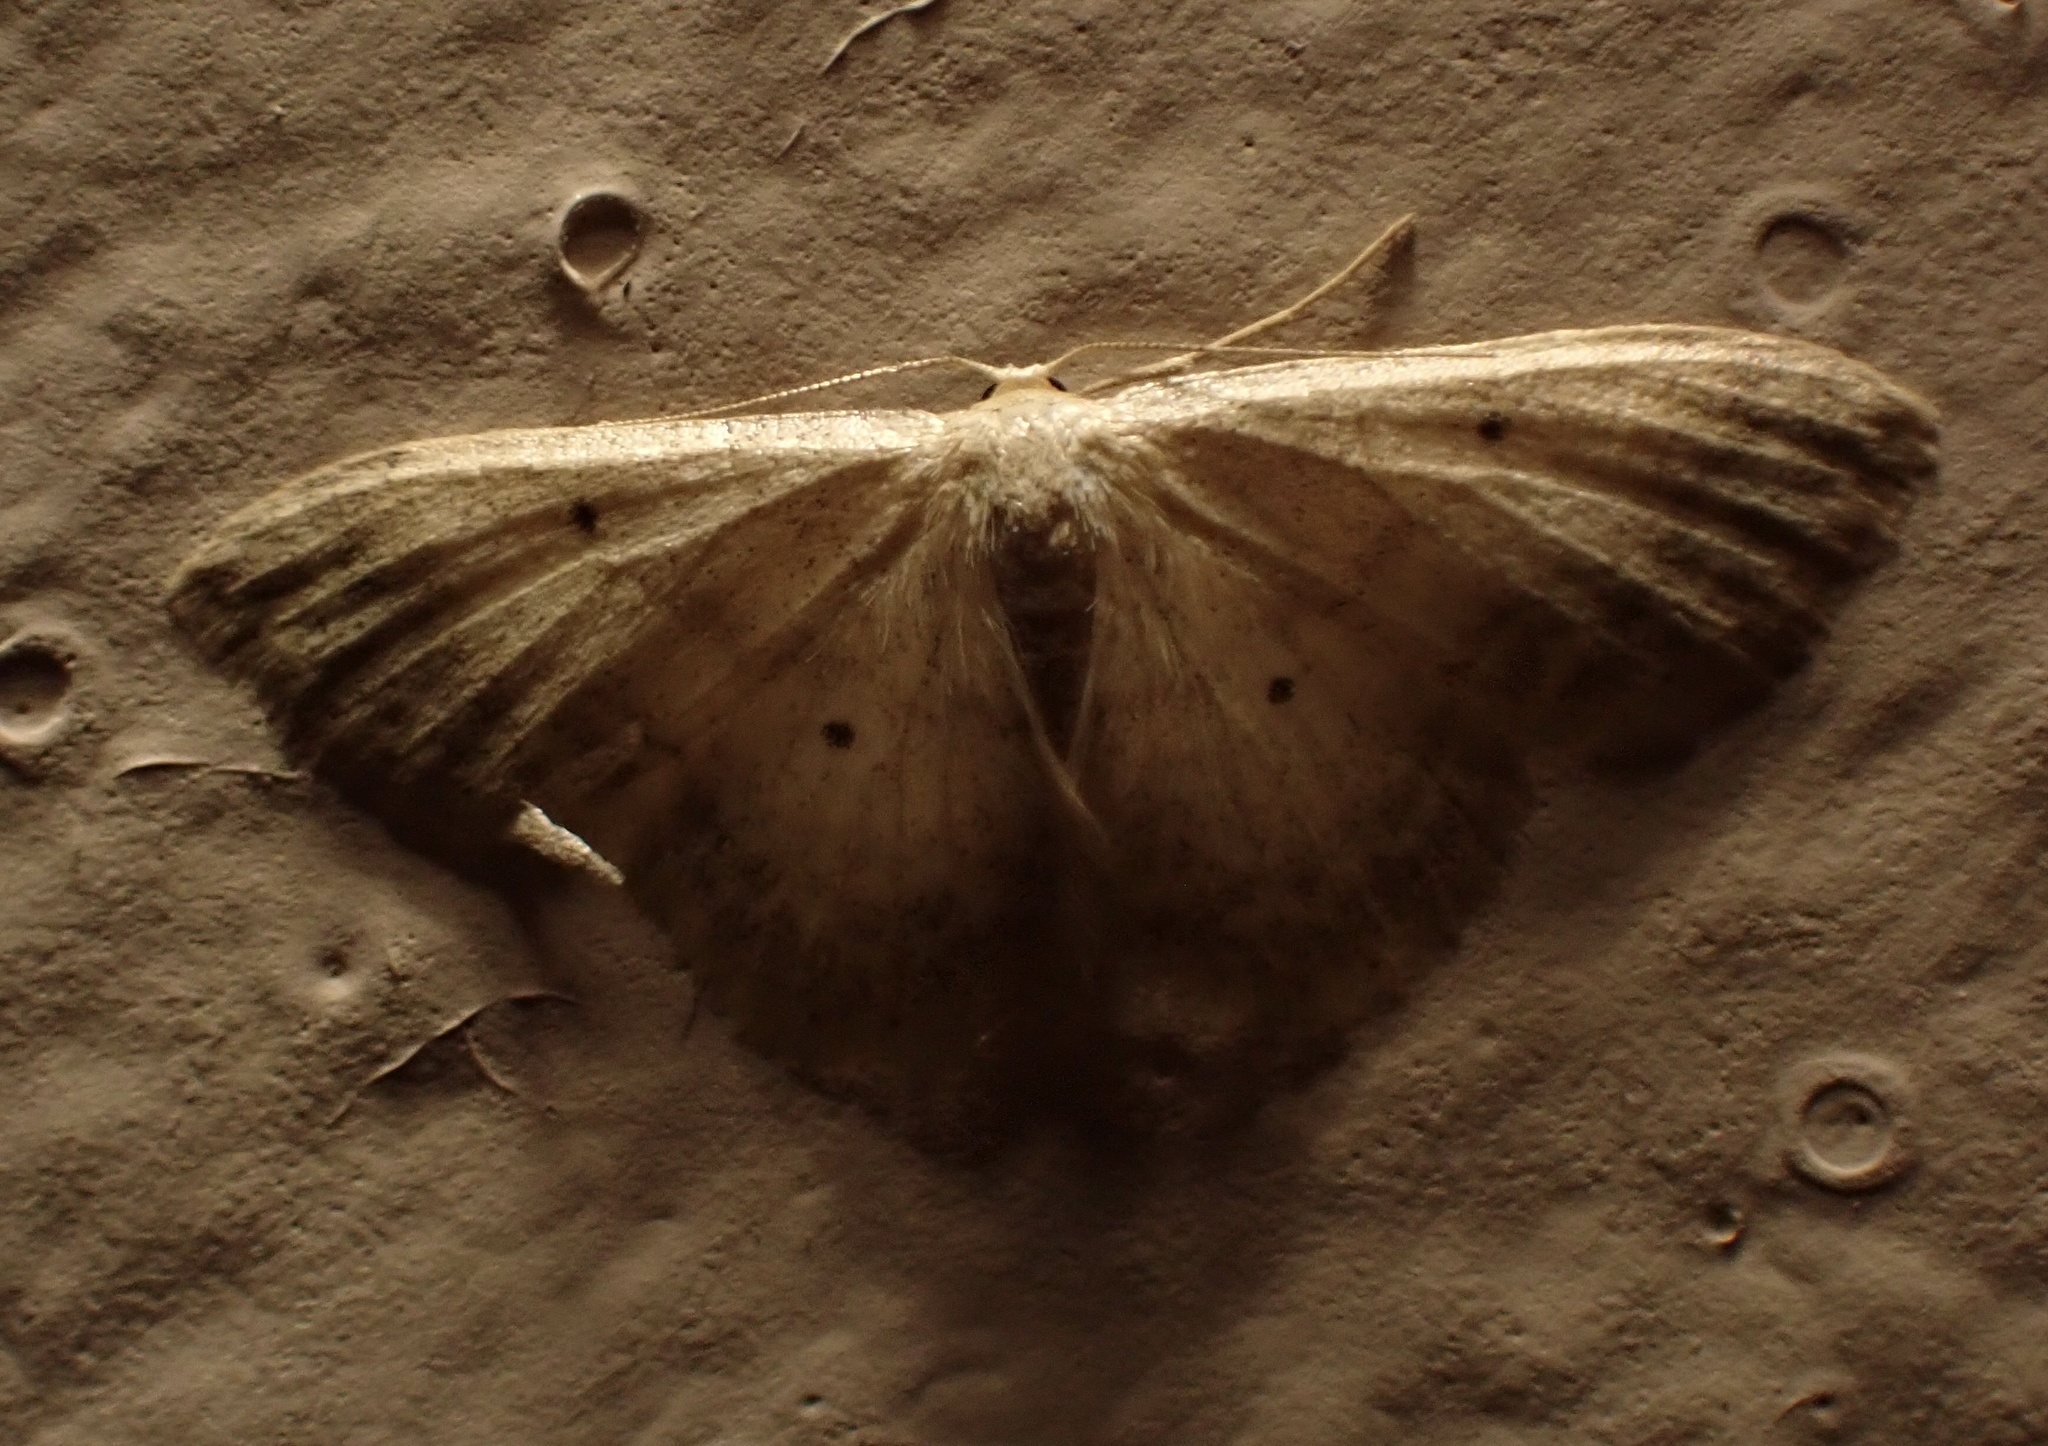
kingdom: Animalia
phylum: Arthropoda
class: Insecta
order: Lepidoptera
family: Geometridae
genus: Idaea
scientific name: Idaea biselata
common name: Small fan-footed wave
